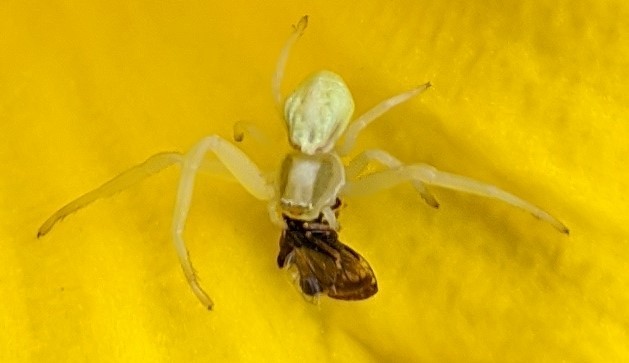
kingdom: Animalia
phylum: Arthropoda
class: Arachnida
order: Araneae
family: Thomisidae
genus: Misumena
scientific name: Misumena vatia
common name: Goldenrod crab spider
